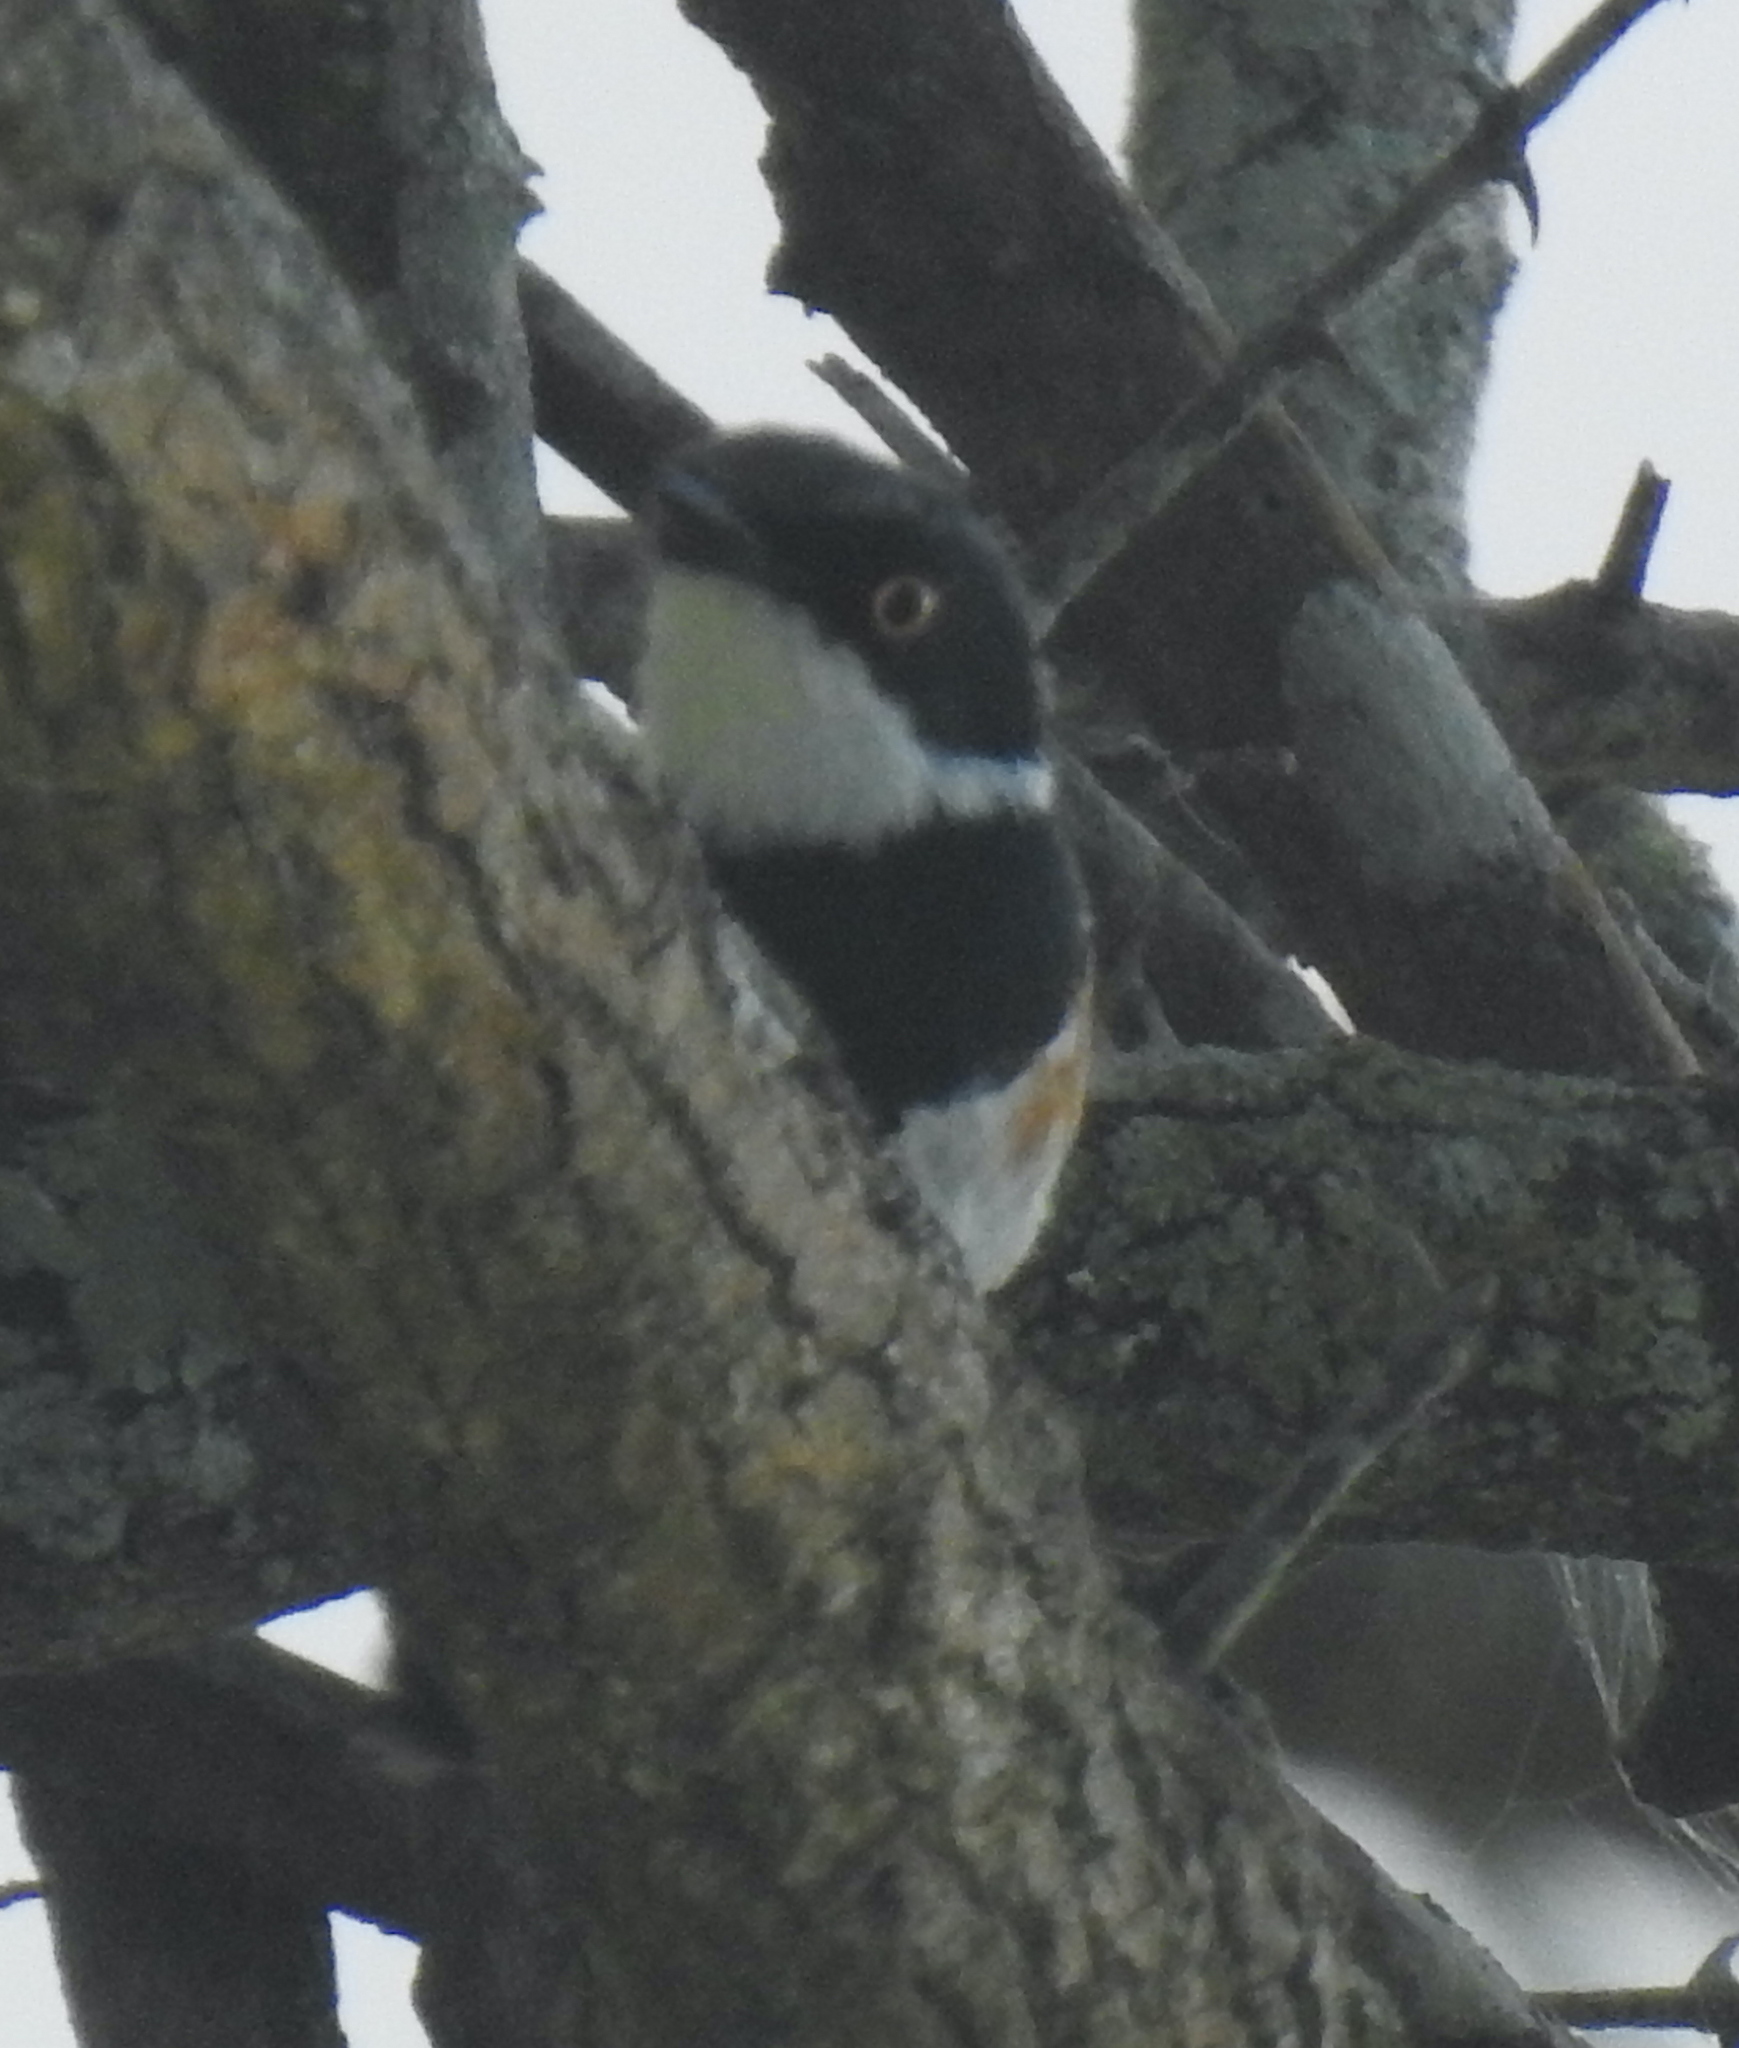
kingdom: Animalia
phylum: Chordata
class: Aves
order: Passeriformes
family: Platysteiridae
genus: Batis
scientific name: Batis capensis
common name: Cape batis
